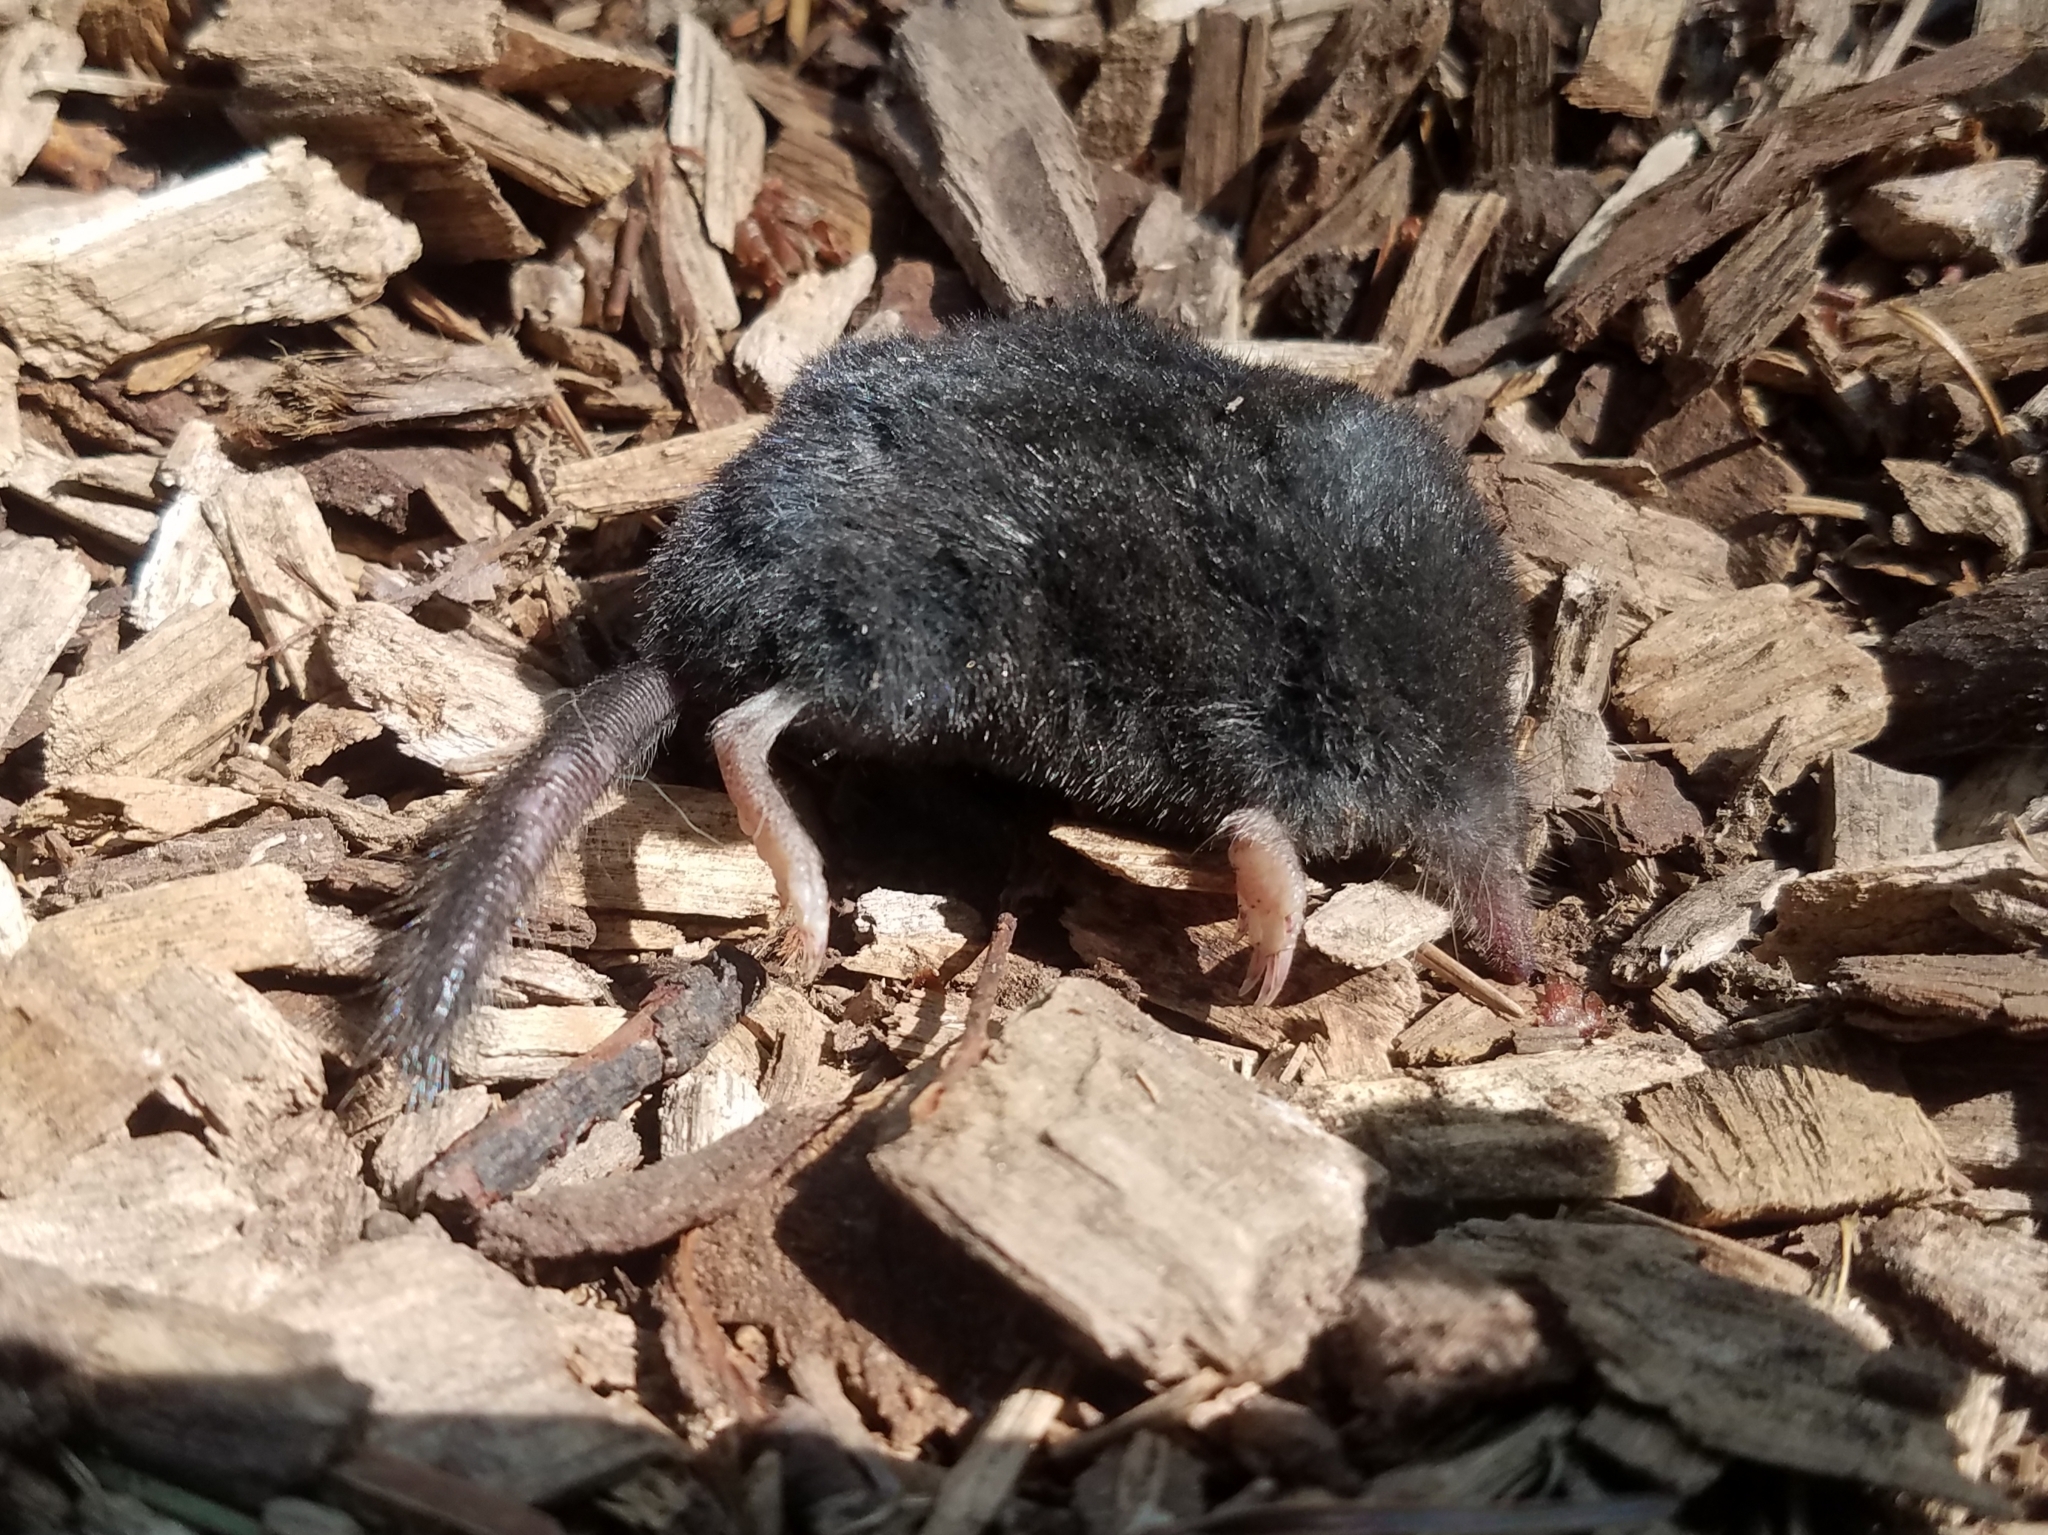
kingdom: Animalia
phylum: Chordata
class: Mammalia
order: Soricomorpha
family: Talpidae
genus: Neurotrichus
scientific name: Neurotrichus gibbsii
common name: American shrew mole
